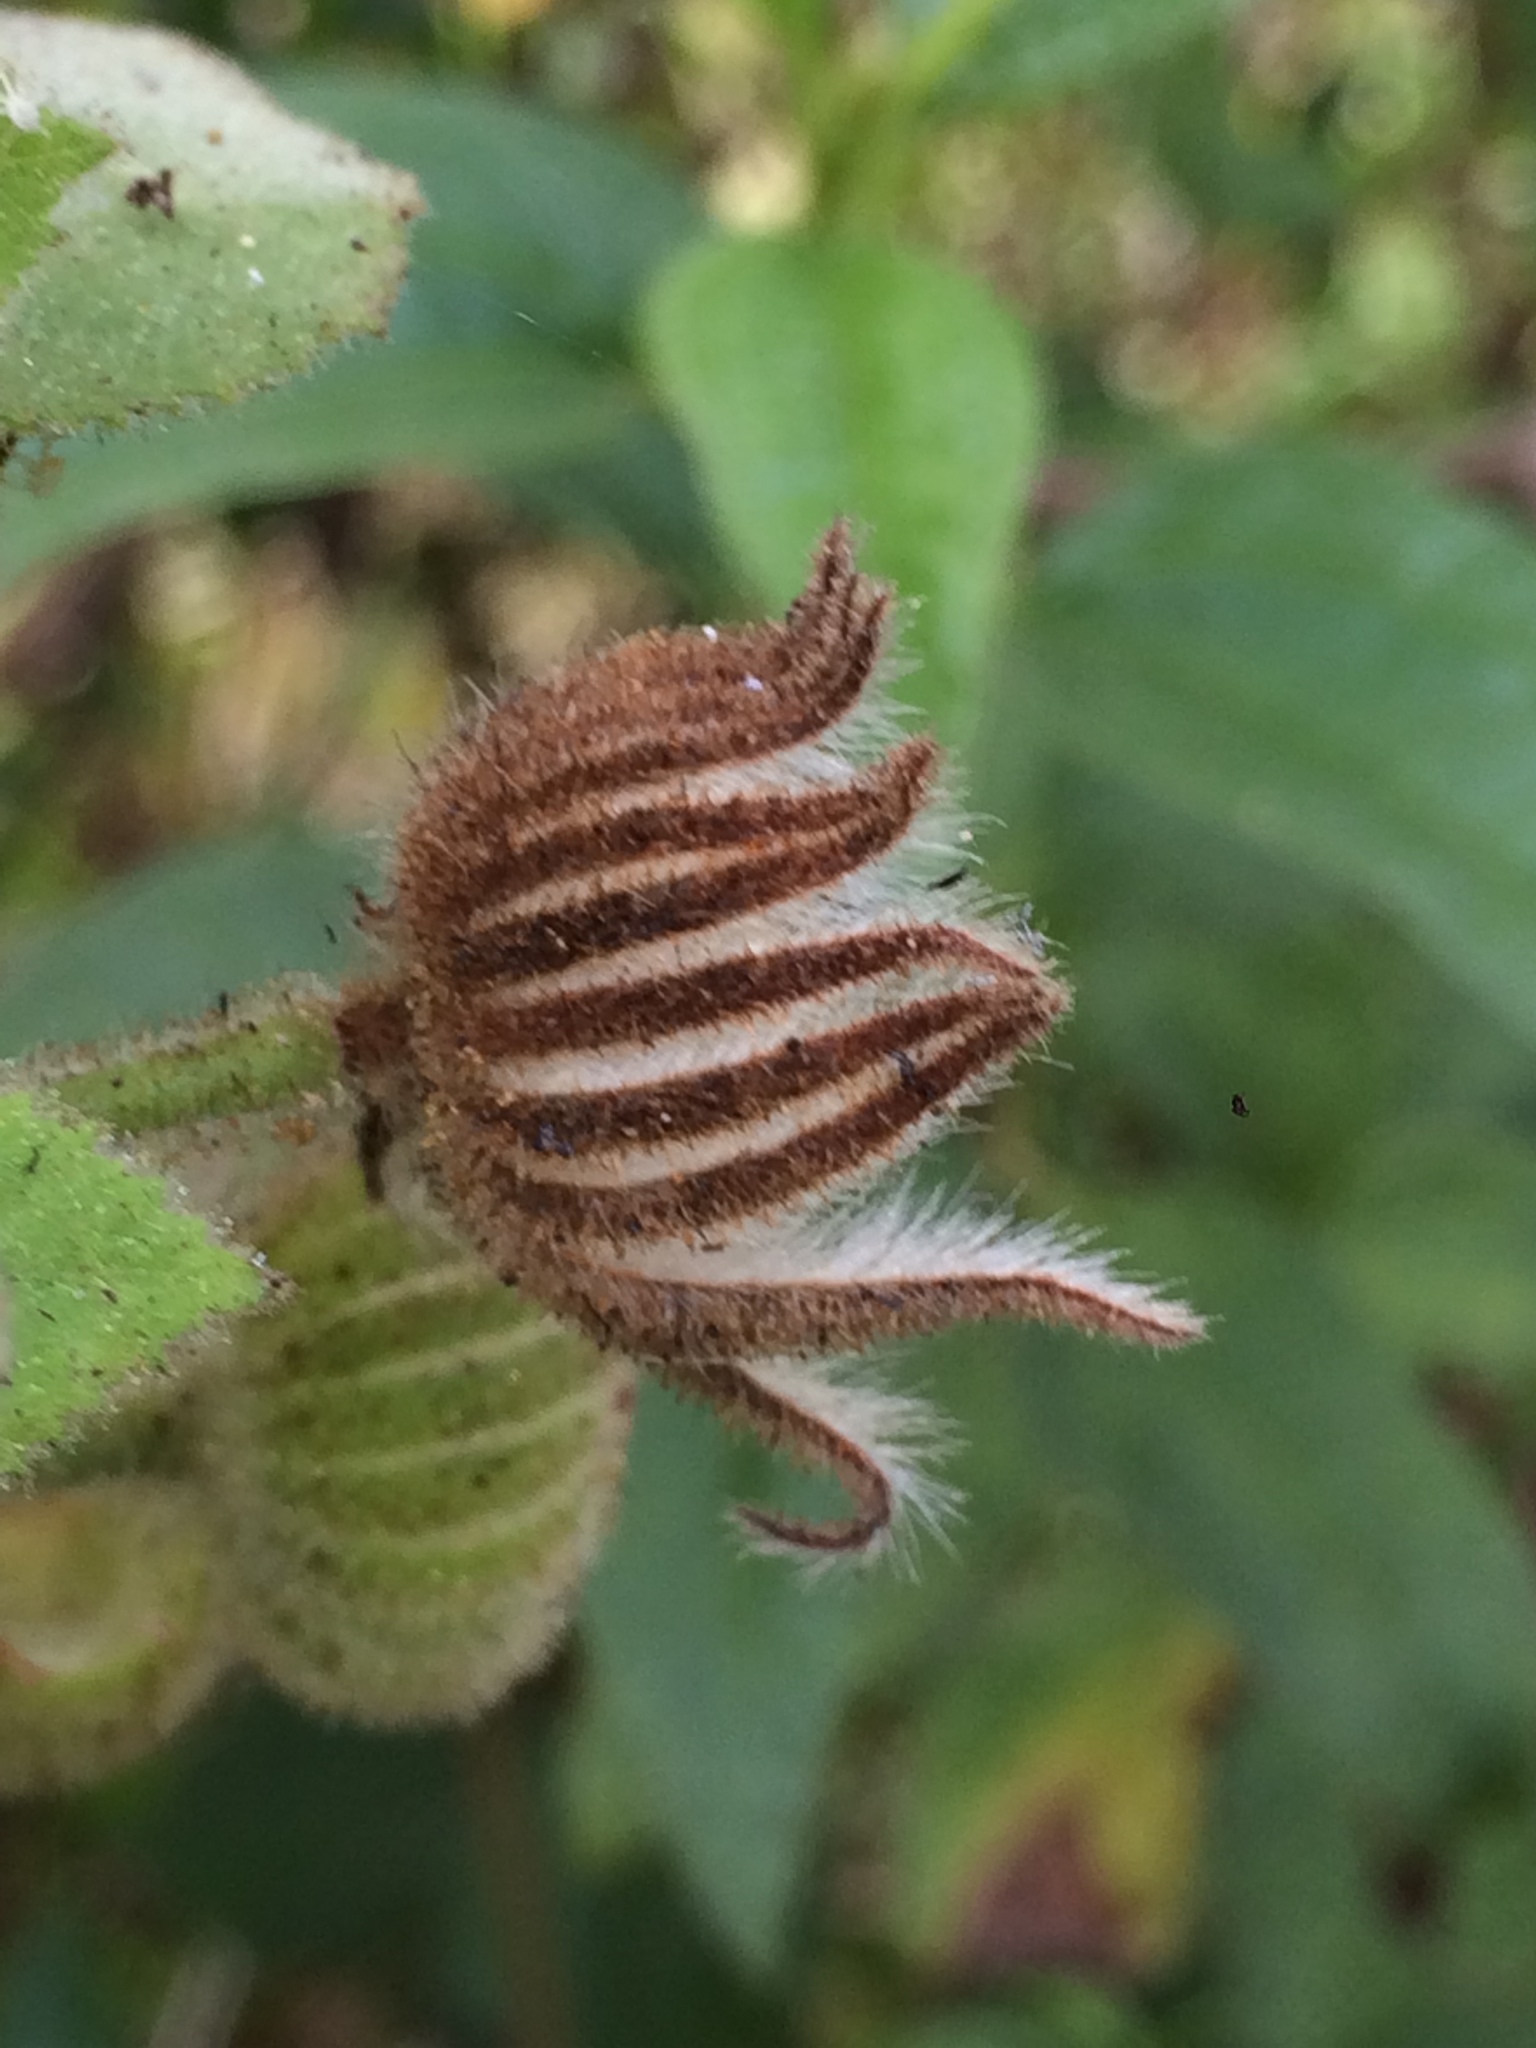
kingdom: Plantae
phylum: Tracheophyta
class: Magnoliopsida
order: Malvales
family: Malvaceae
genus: Pavonia
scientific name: Pavonia malacophylla
